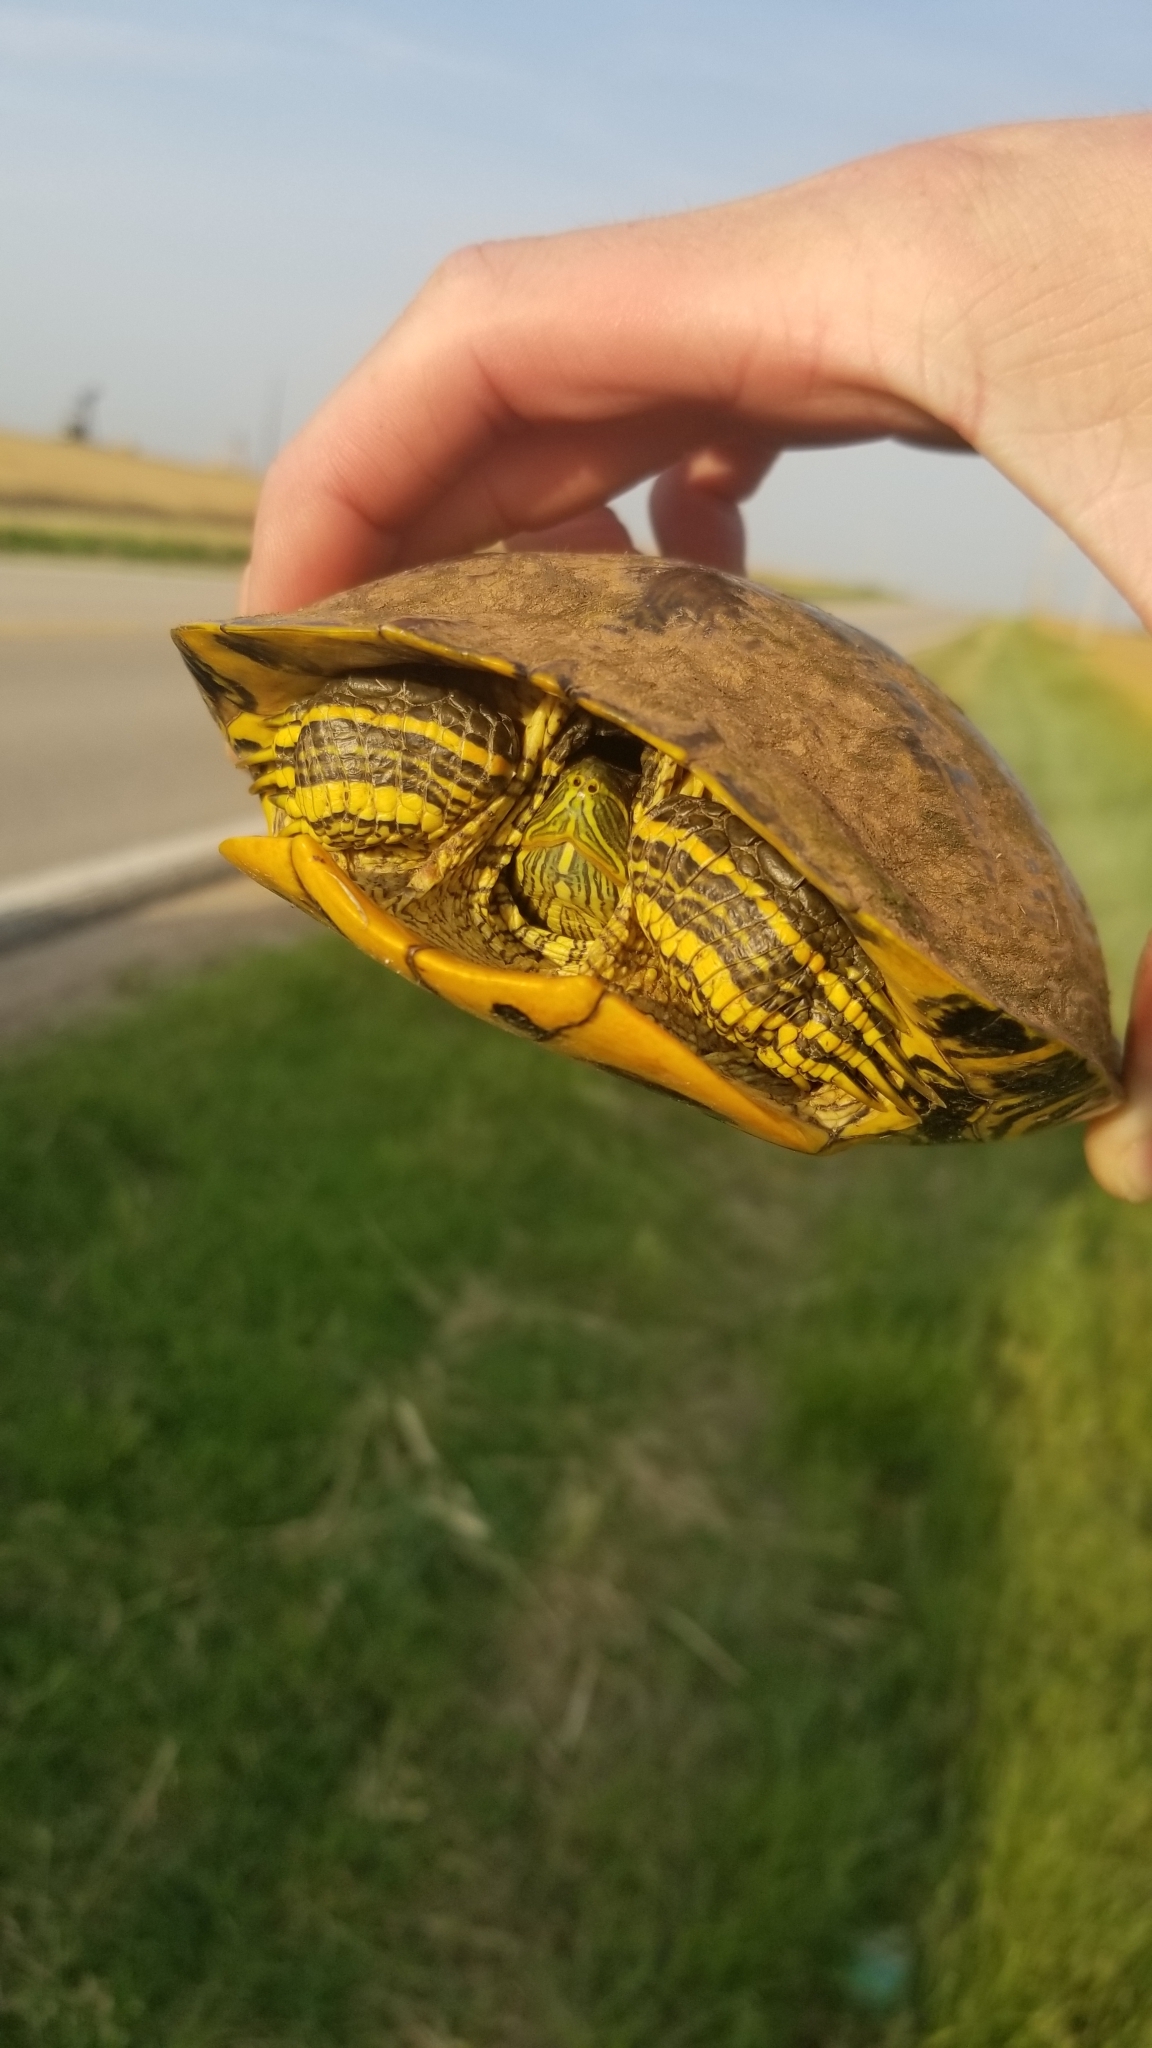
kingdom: Animalia
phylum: Chordata
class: Testudines
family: Emydidae
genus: Trachemys
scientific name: Trachemys scripta
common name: Slider
